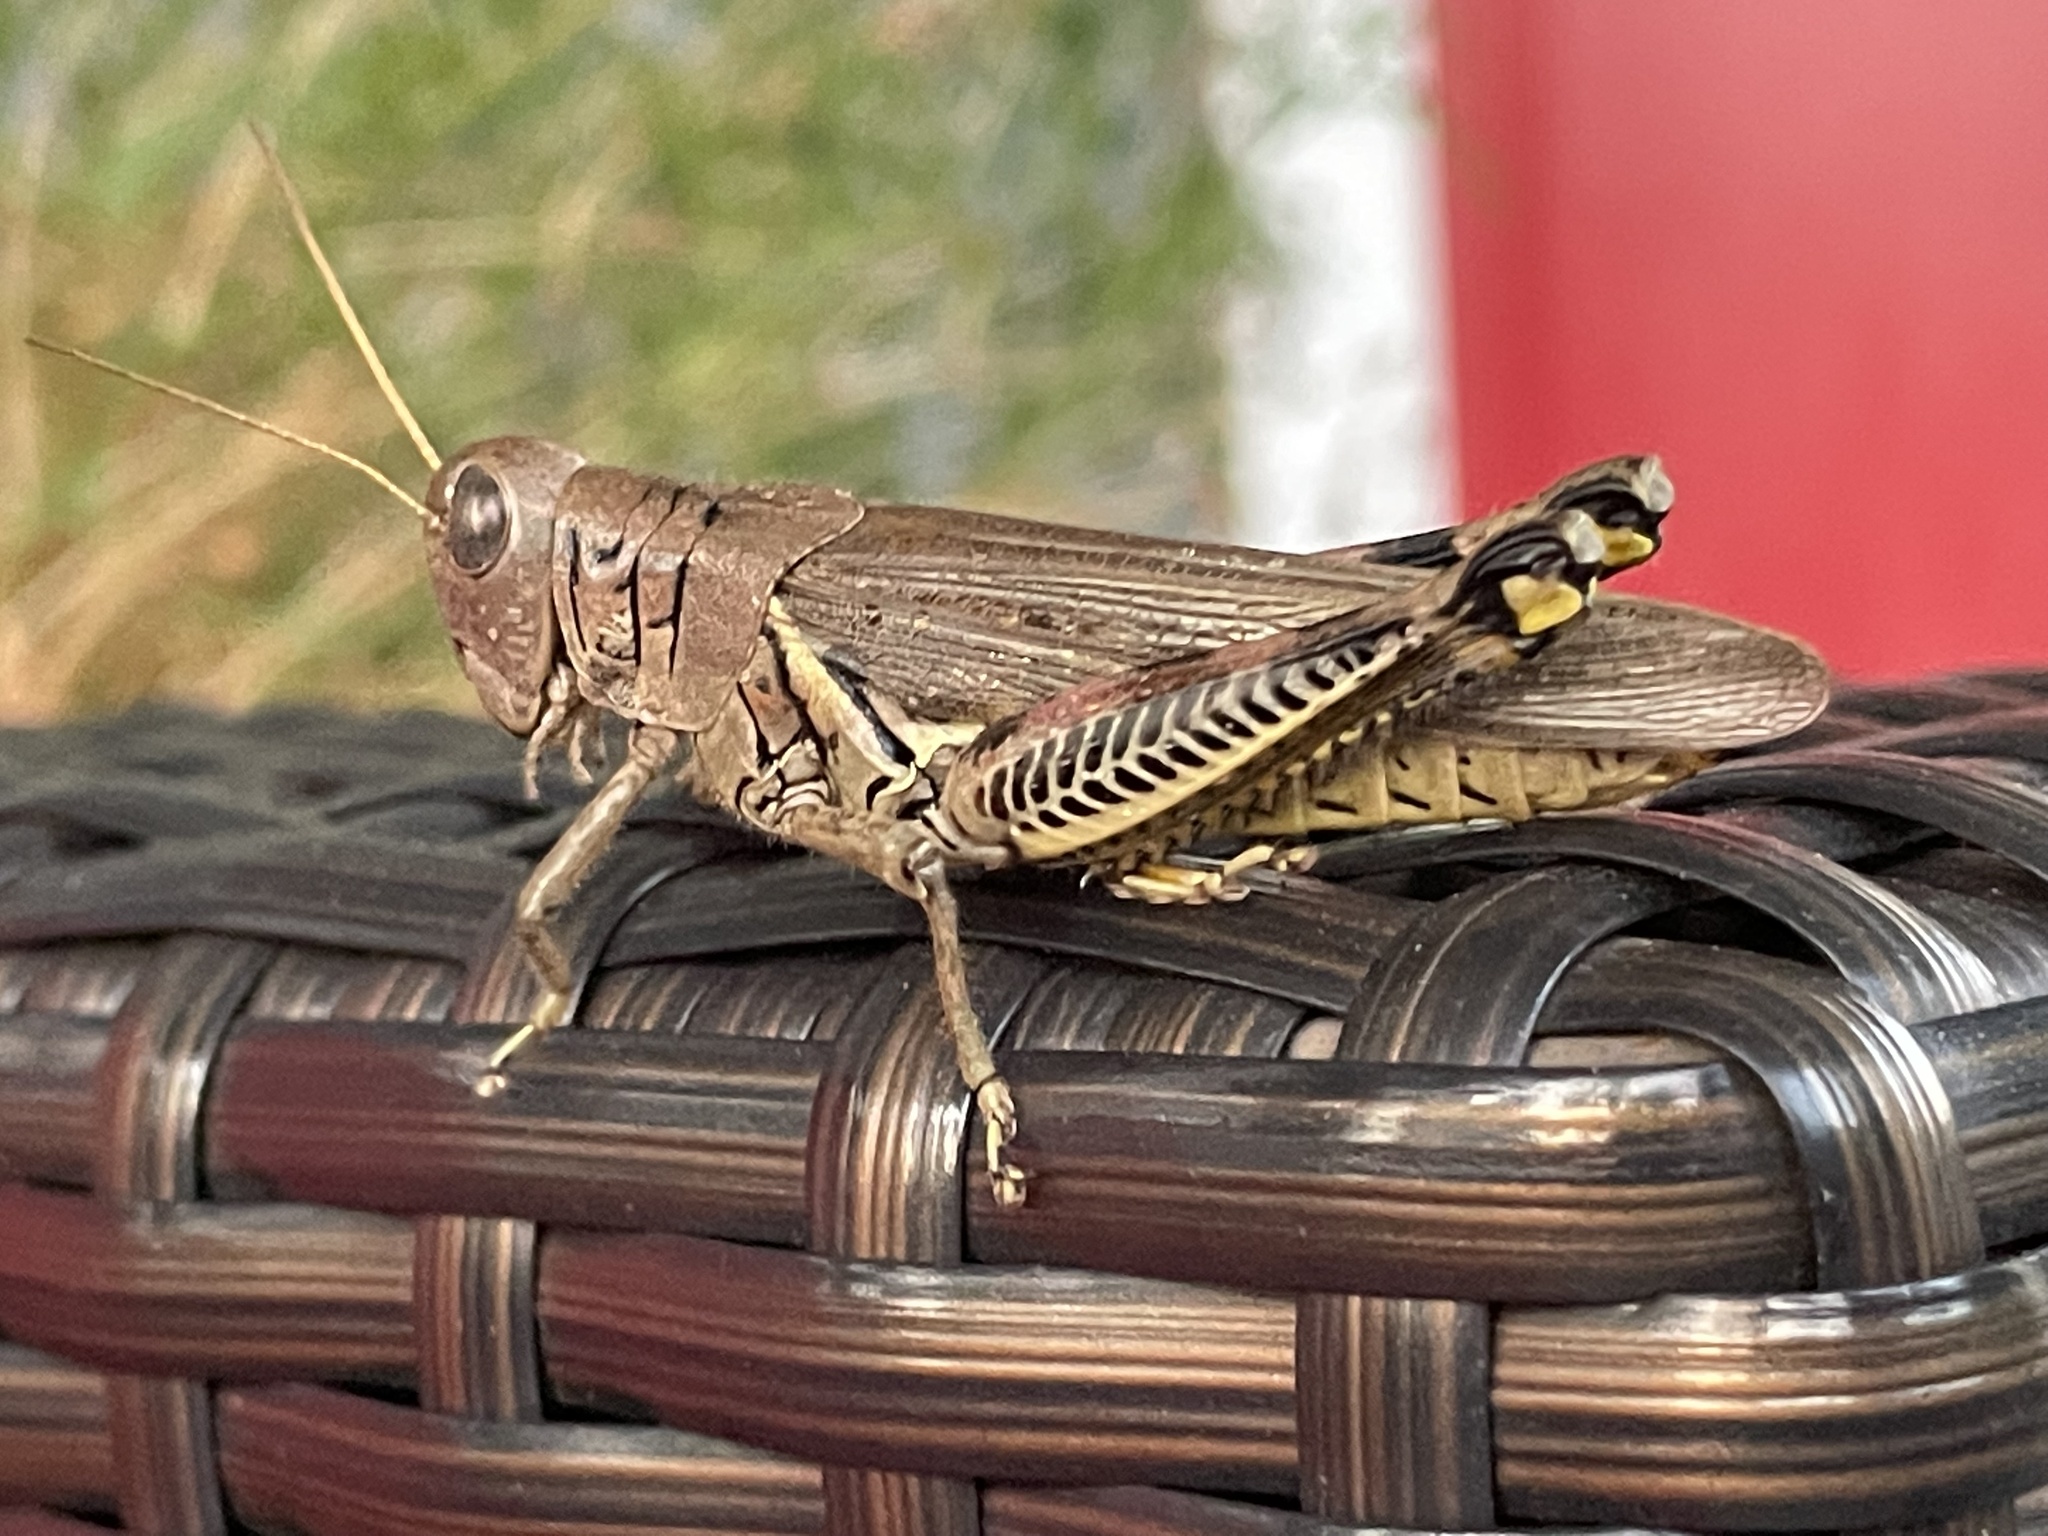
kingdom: Animalia
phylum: Arthropoda
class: Insecta
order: Orthoptera
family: Acrididae
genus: Melanoplus
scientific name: Melanoplus differentialis
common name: Differential grasshopper
